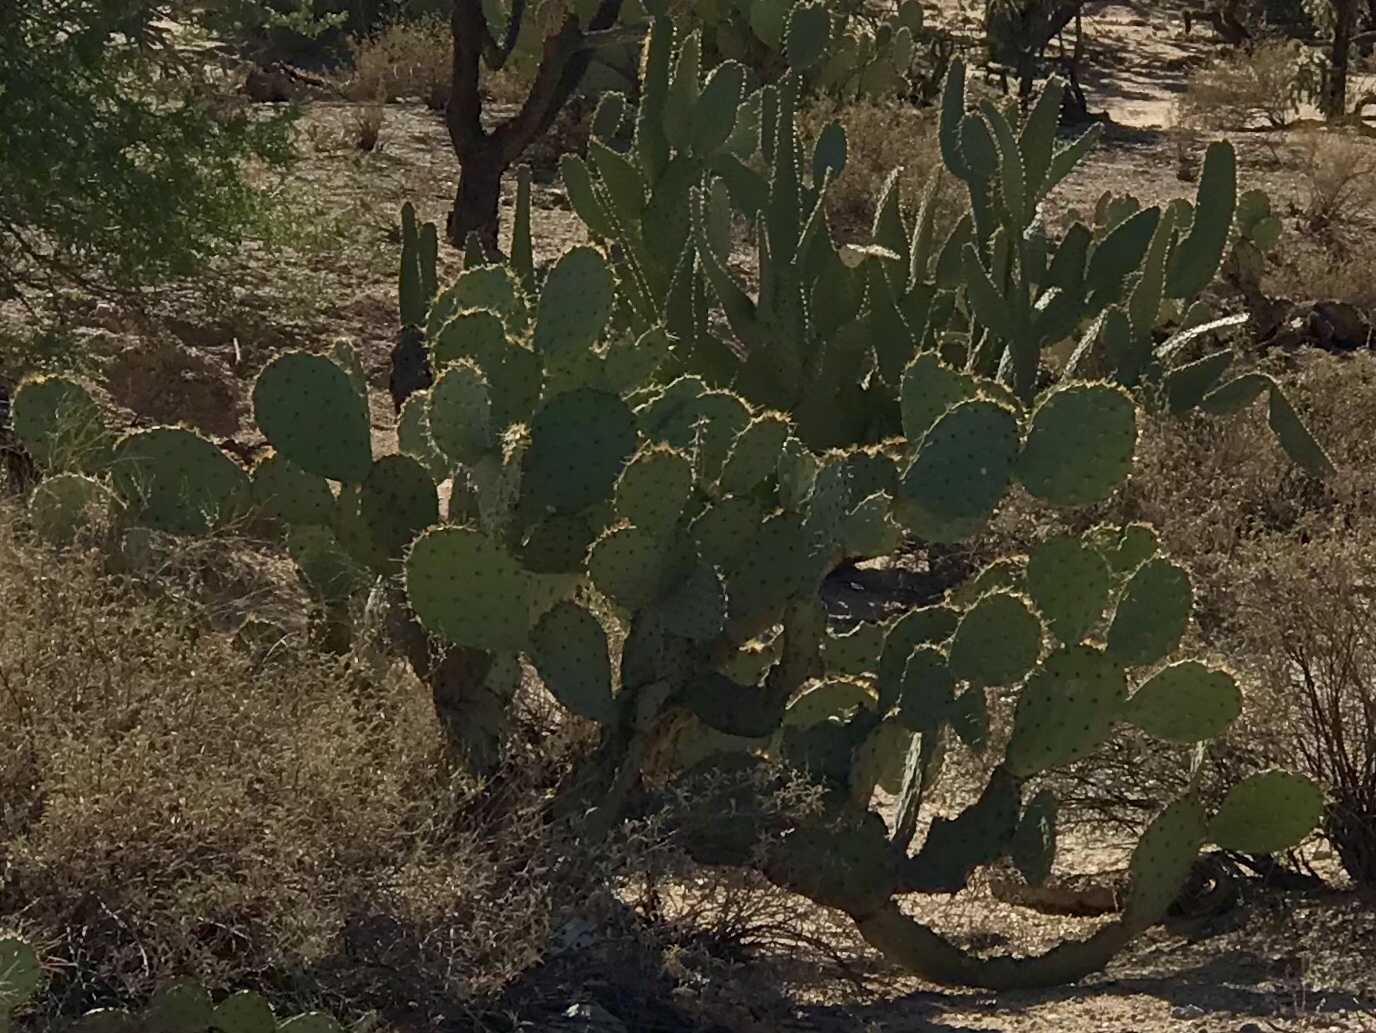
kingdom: Plantae
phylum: Tracheophyta
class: Magnoliopsida
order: Caryophyllales
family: Cactaceae
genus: Opuntia
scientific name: Opuntia engelmannii
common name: Cactus-apple
